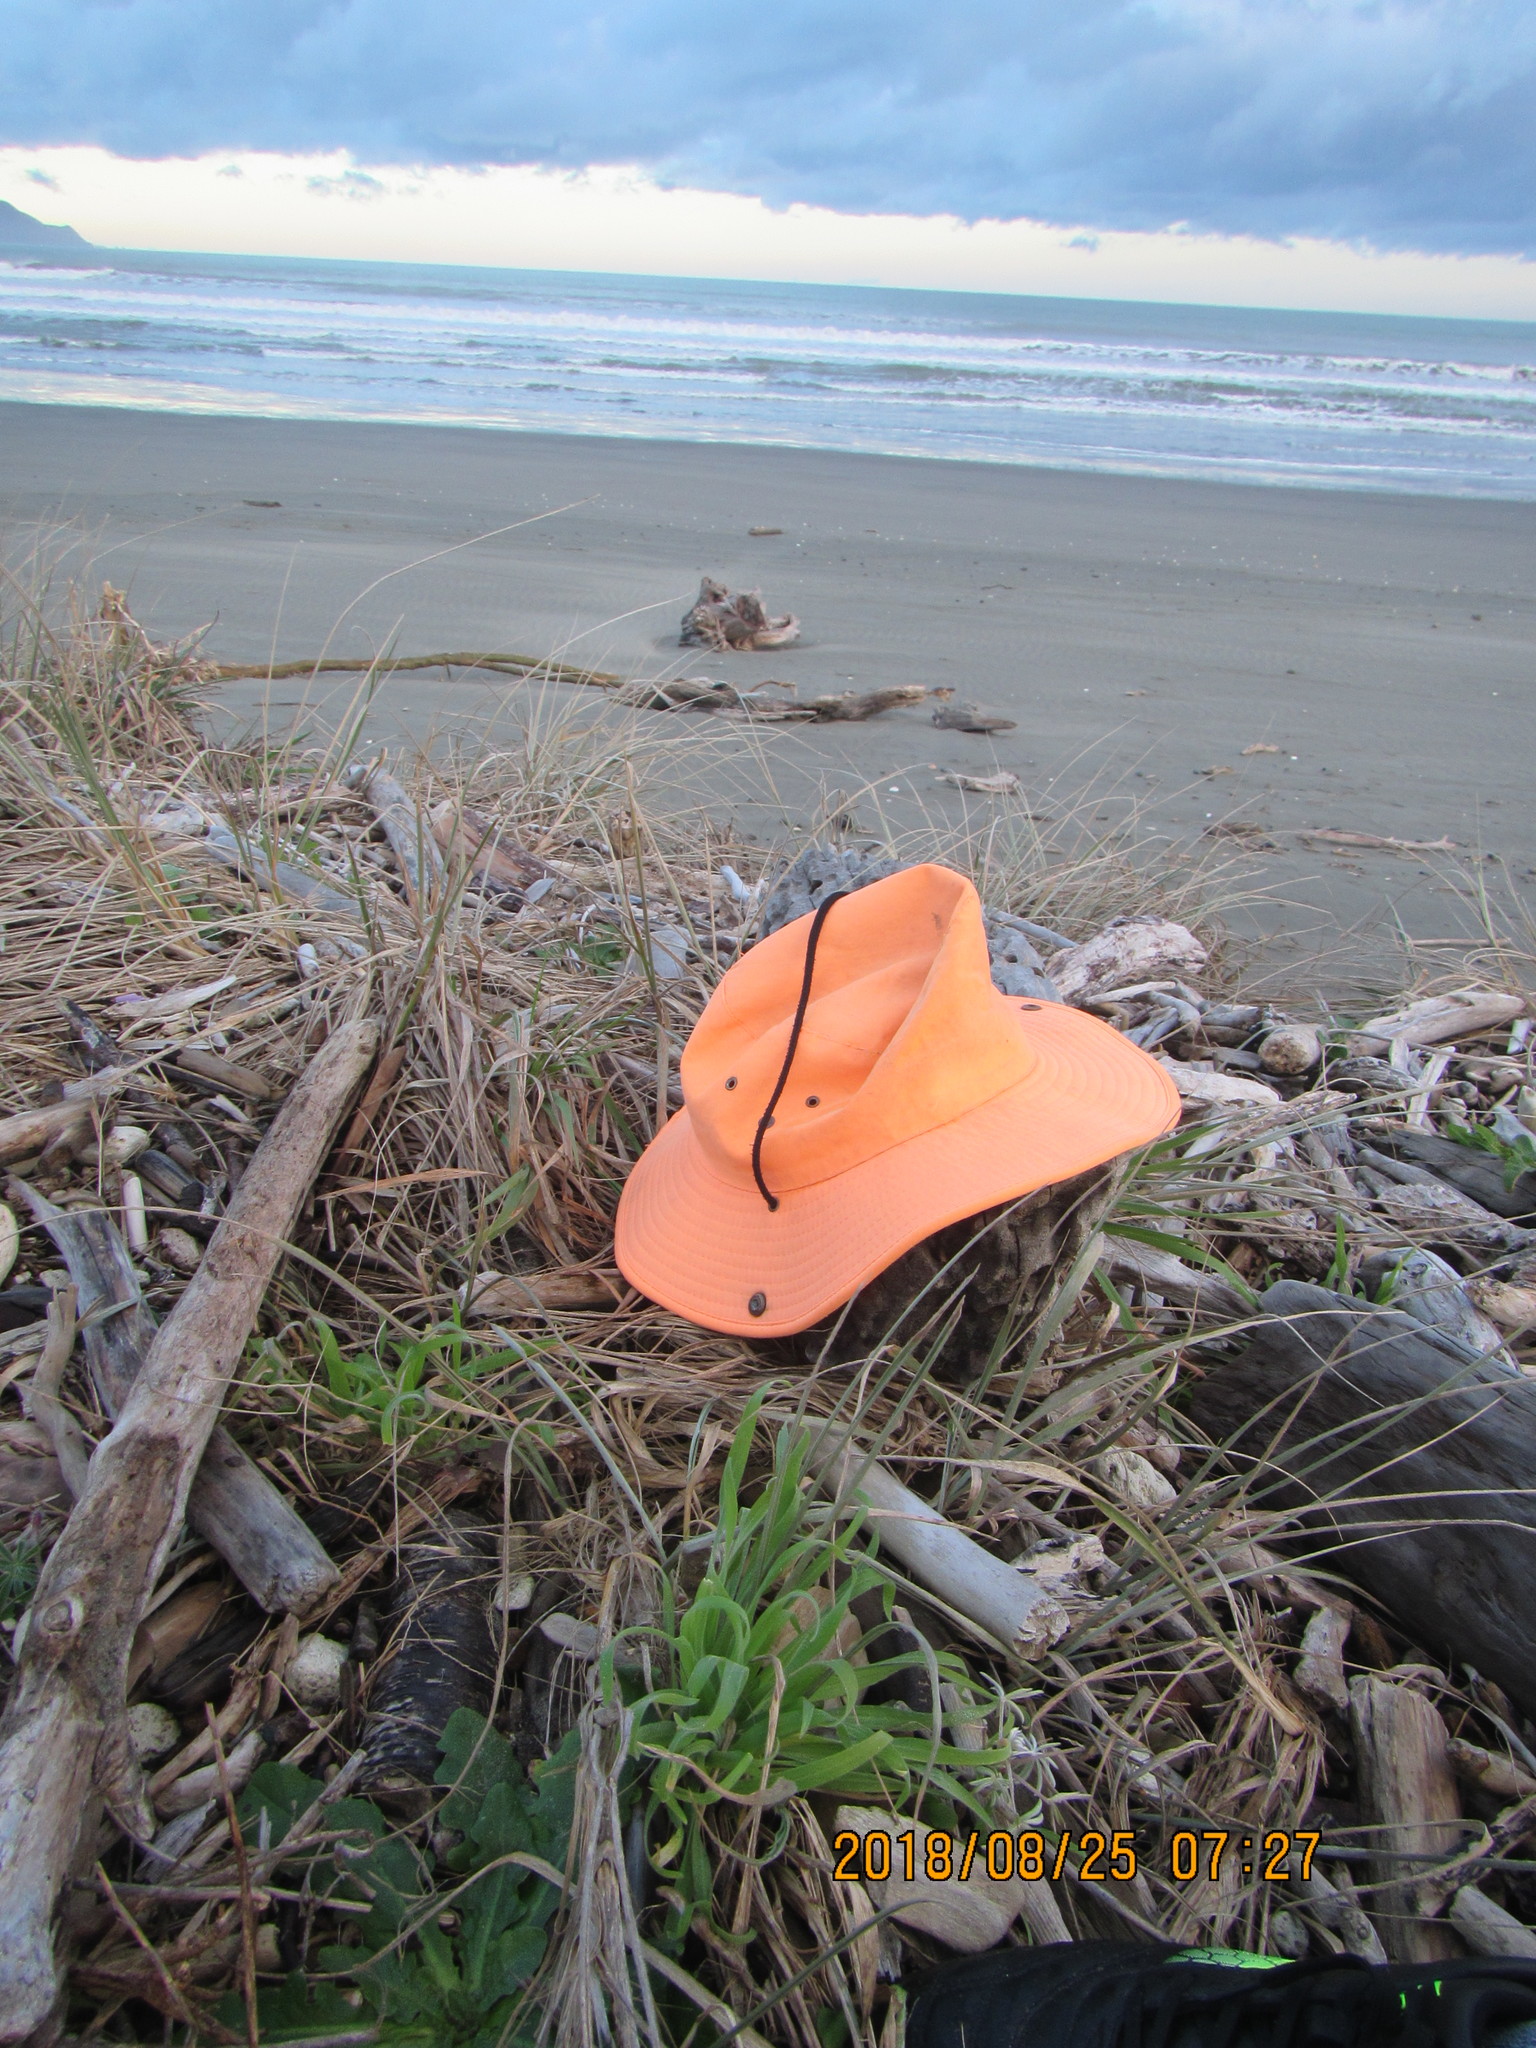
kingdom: Animalia
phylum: Mollusca
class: Gastropoda
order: Stylommatophora
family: Geomitridae
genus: Xeroplexa
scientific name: Xeroplexa intersecta
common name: Wrinkled snail
